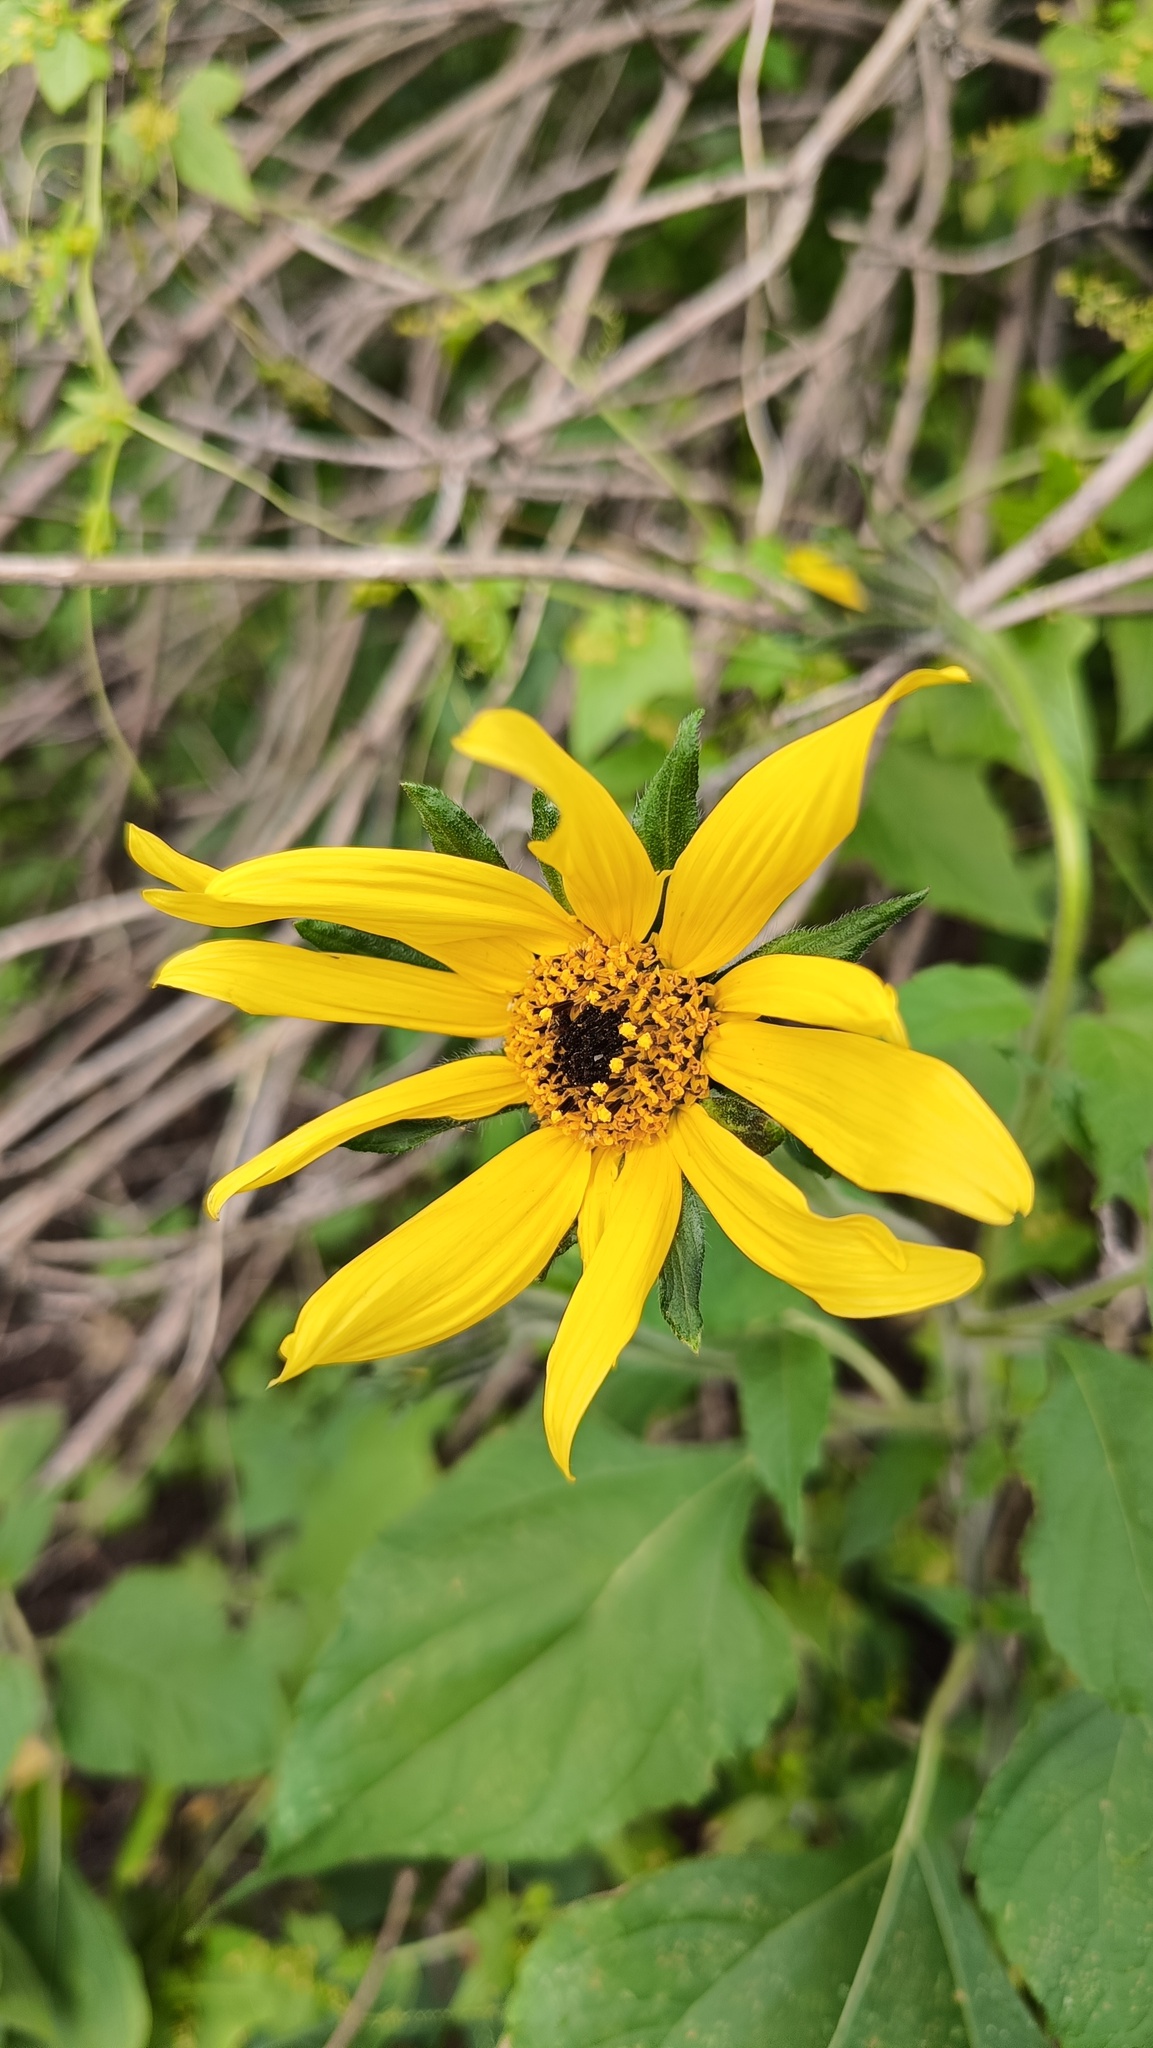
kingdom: Plantae
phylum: Tracheophyta
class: Magnoliopsida
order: Asterales
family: Asteraceae
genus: Tithonia
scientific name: Tithonia tubaeformis
